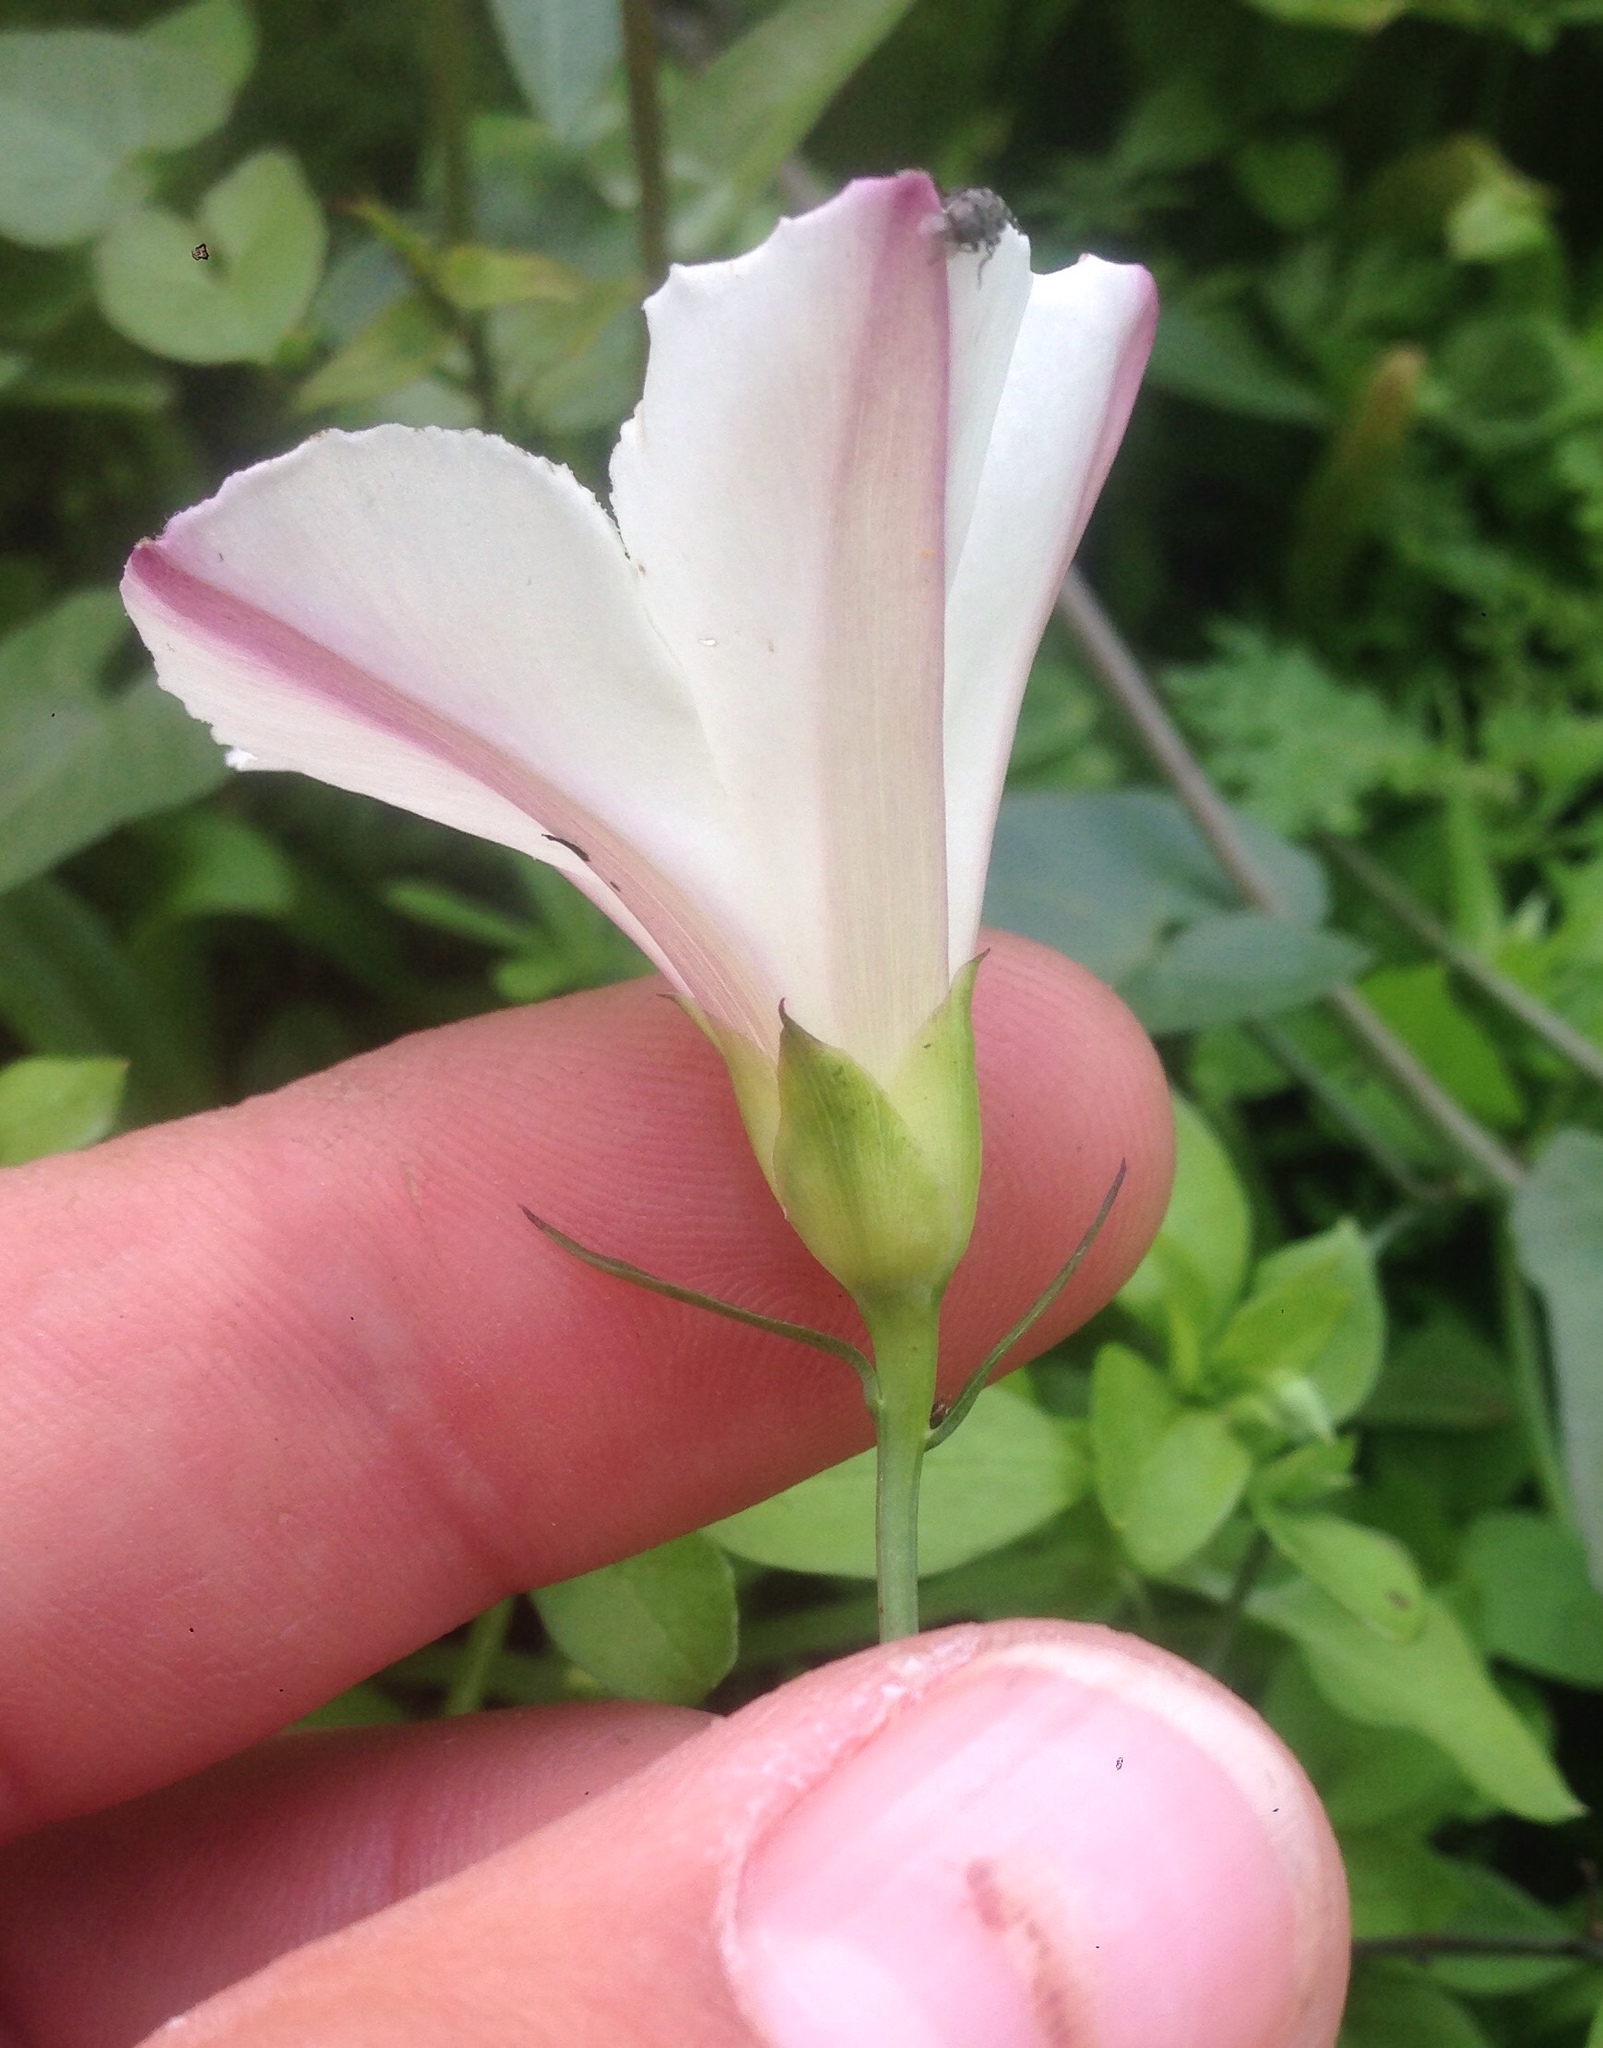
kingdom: Plantae
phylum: Tracheophyta
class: Magnoliopsida
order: Solanales
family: Convolvulaceae
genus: Calystegia
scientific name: Calystegia purpurata
